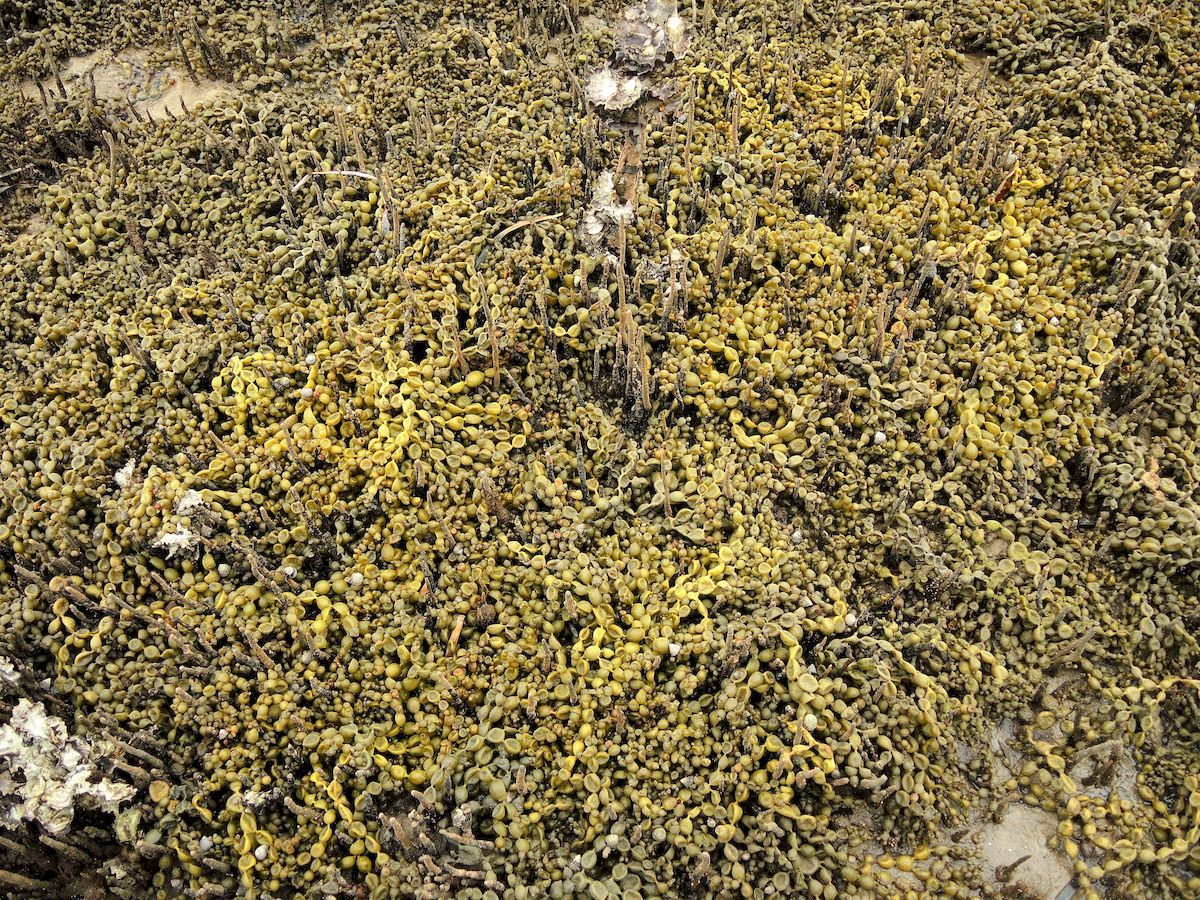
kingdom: Chromista
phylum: Ochrophyta
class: Phaeophyceae
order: Fucales
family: Hormosiraceae
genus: Hormosira
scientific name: Hormosira banksii
